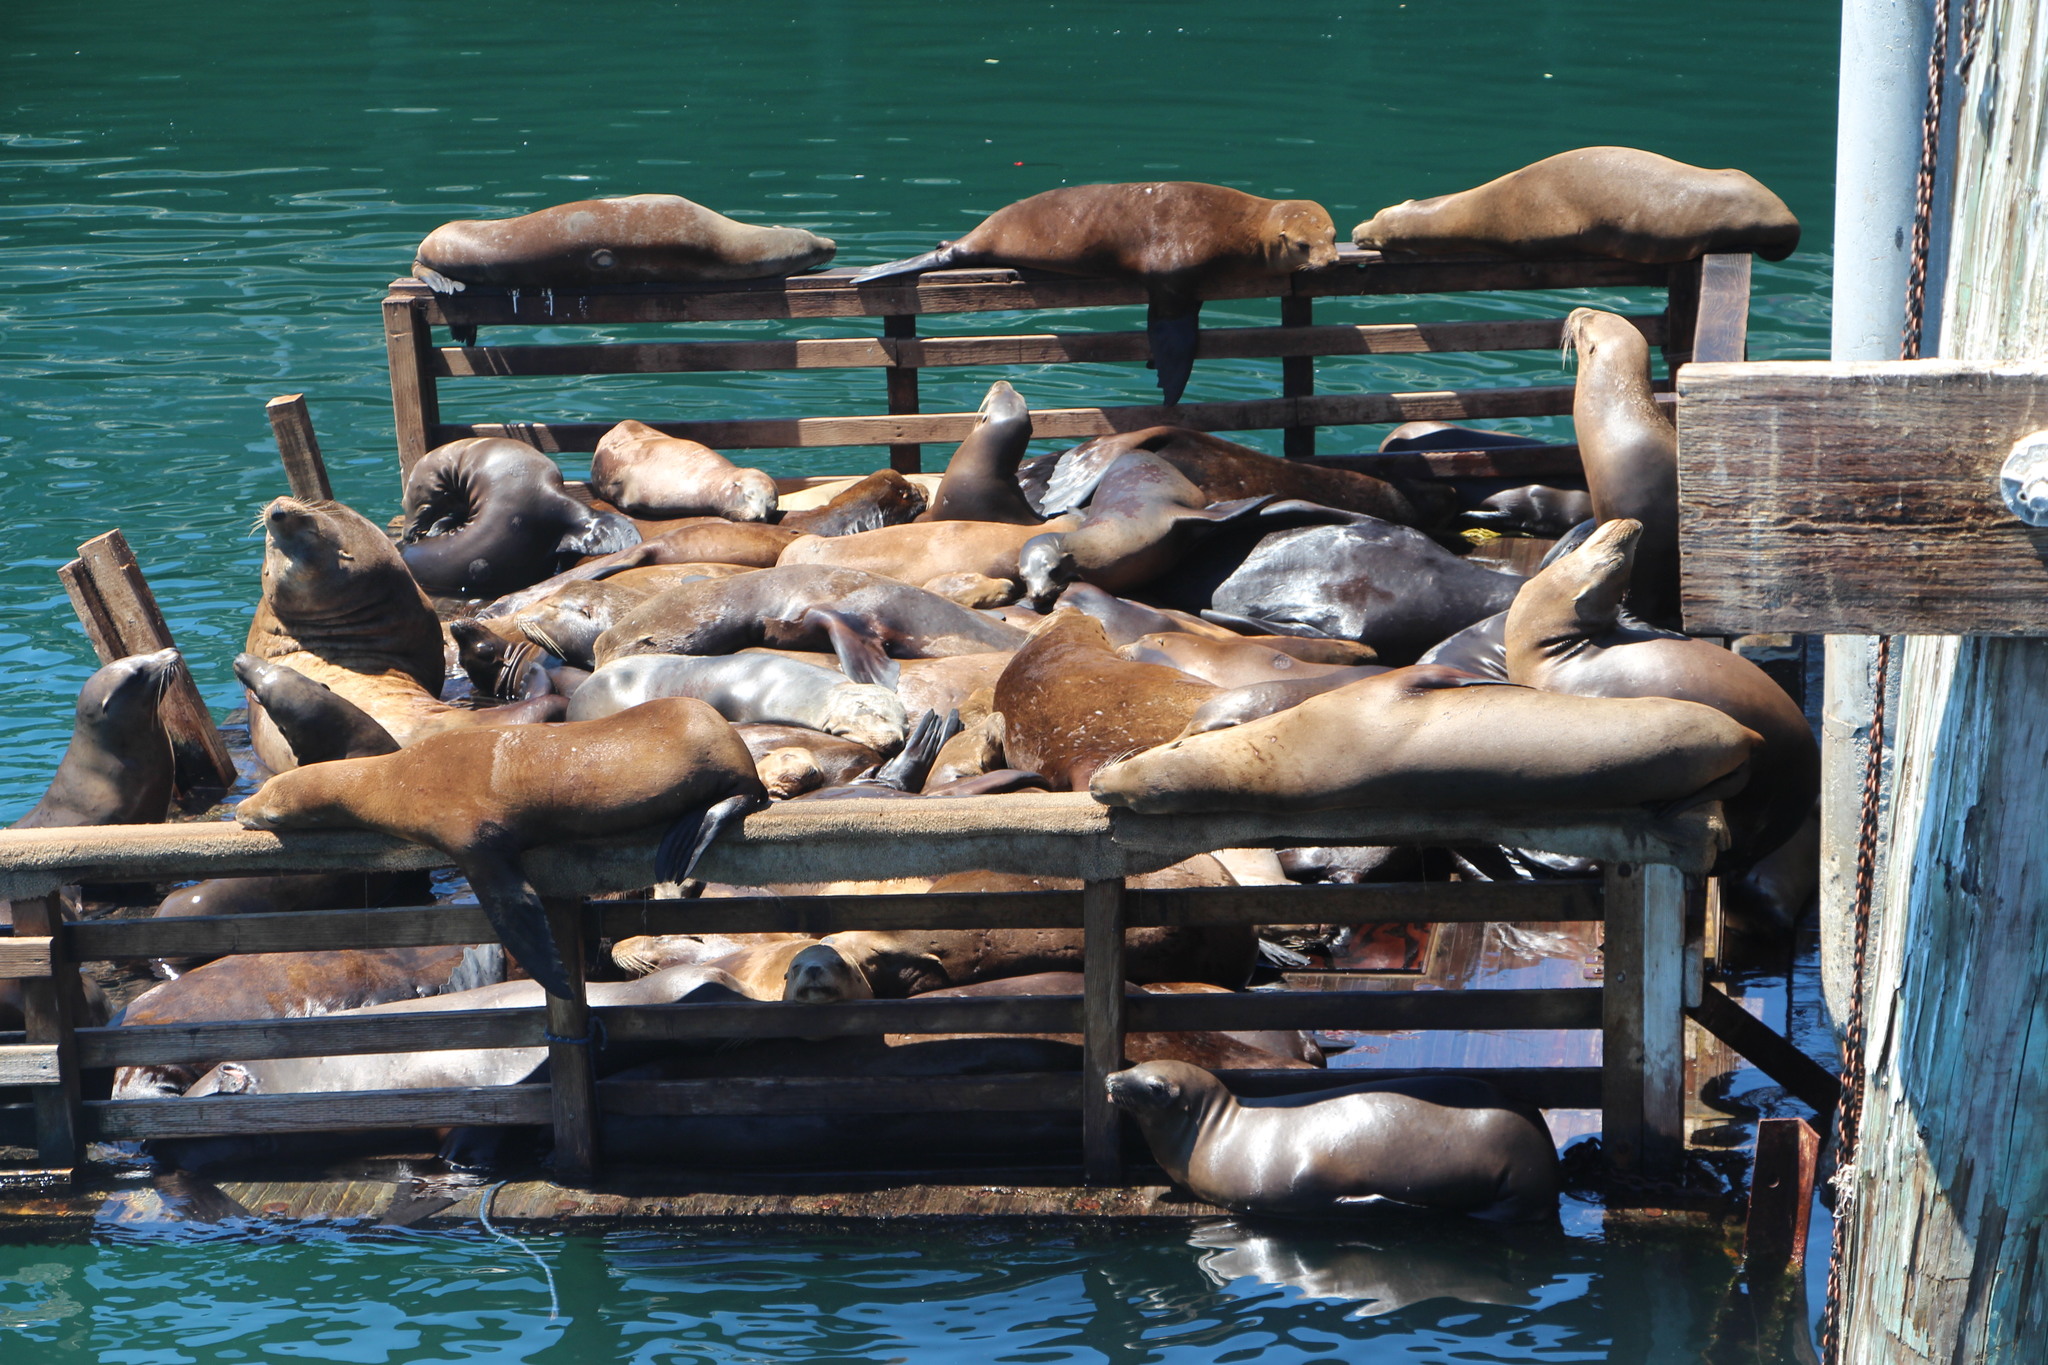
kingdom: Animalia
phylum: Chordata
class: Mammalia
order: Carnivora
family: Otariidae
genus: Zalophus
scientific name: Zalophus californianus
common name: California sea lion
